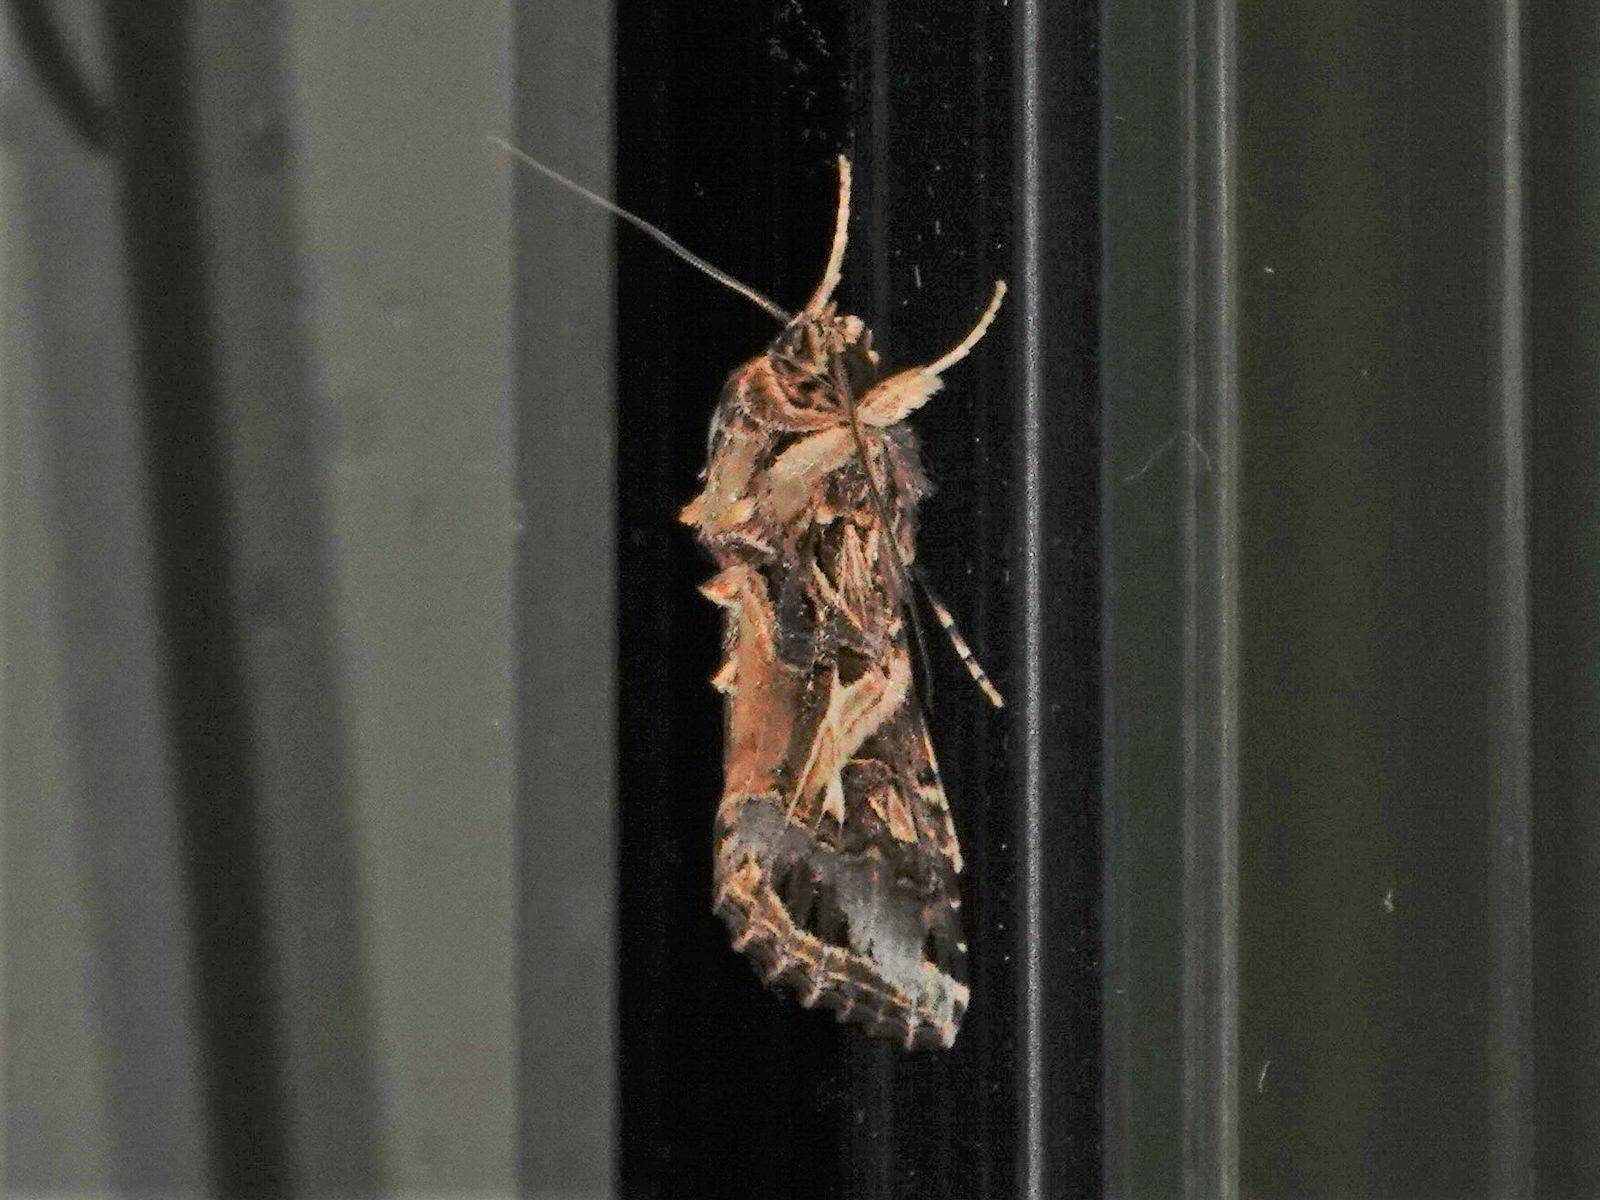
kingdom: Animalia
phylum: Arthropoda
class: Insecta
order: Lepidoptera
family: Noctuidae
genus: Spodoptera
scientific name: Spodoptera litura
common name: Asian cotton leafworm
